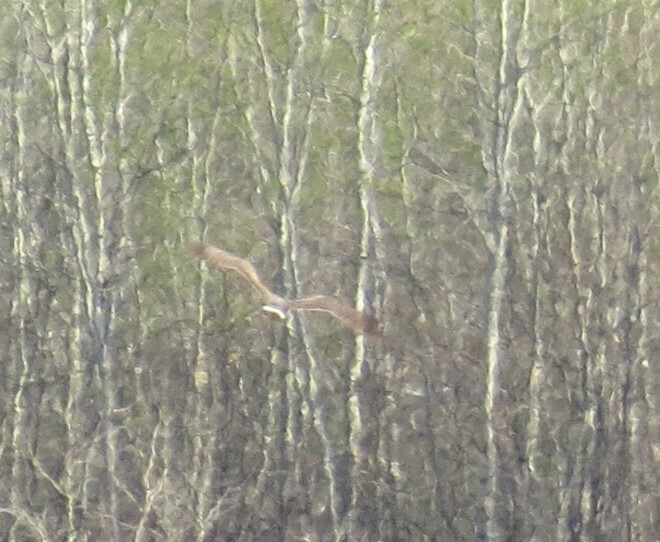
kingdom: Animalia
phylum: Chordata
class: Aves
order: Accipitriformes
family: Accipitridae
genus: Circus
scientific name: Circus cyaneus
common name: Hen harrier
